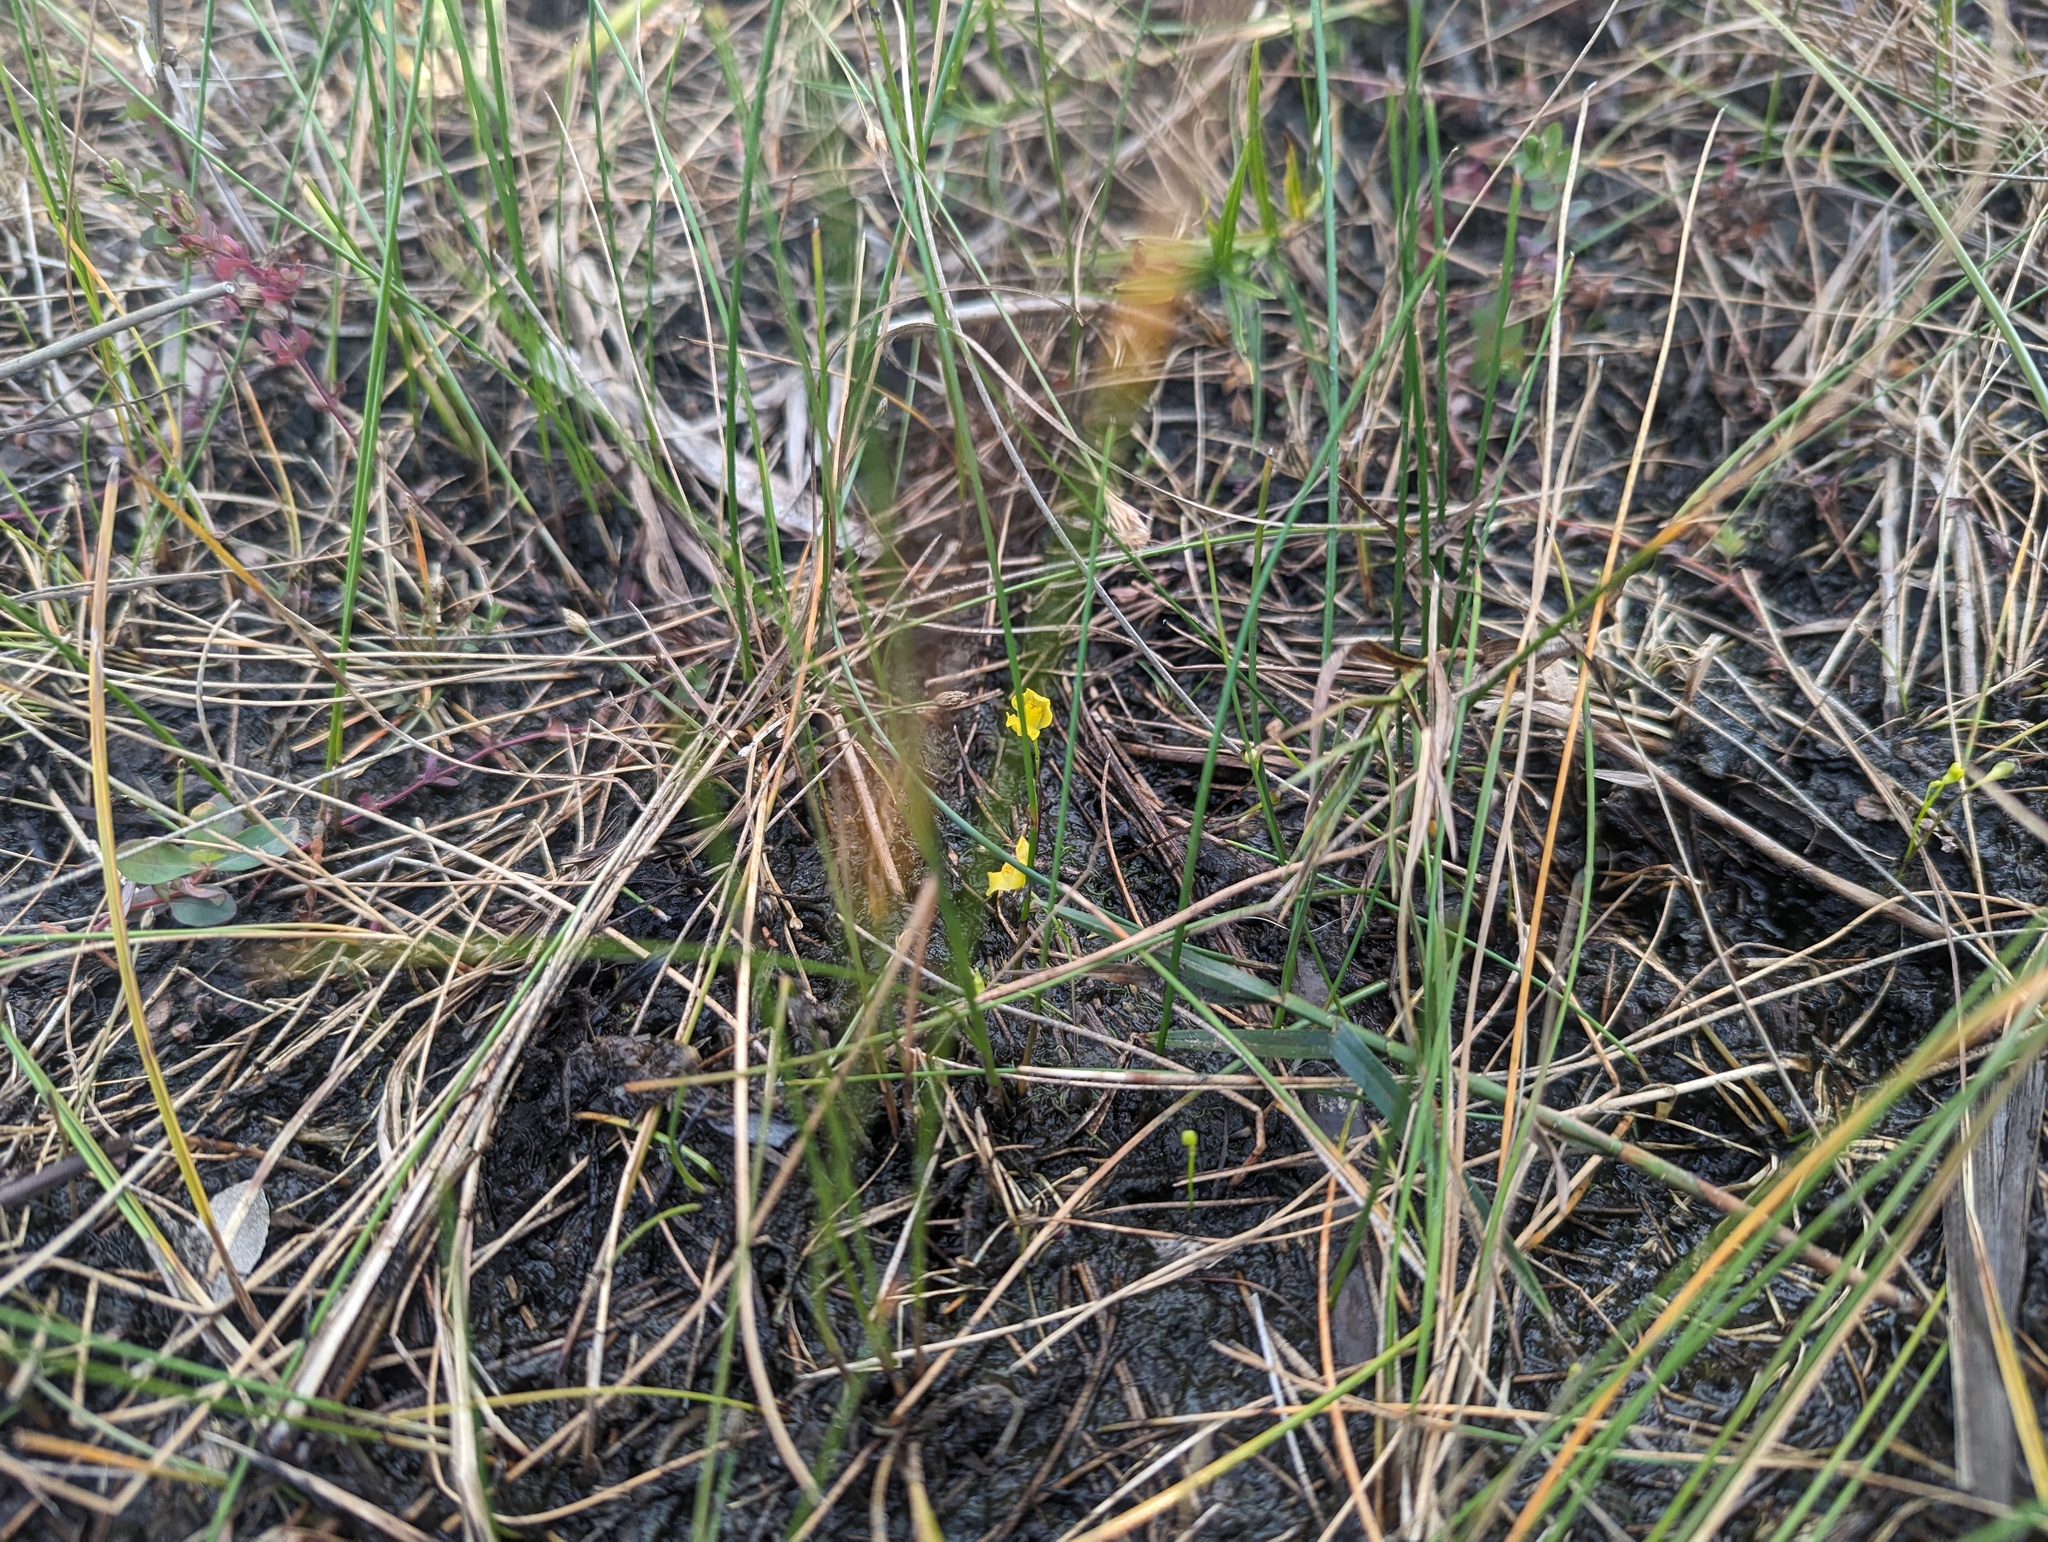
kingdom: Plantae
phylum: Tracheophyta
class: Magnoliopsida
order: Lamiales
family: Lentibulariaceae
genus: Utricularia
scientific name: Utricularia gibba
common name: Humped bladderwort
